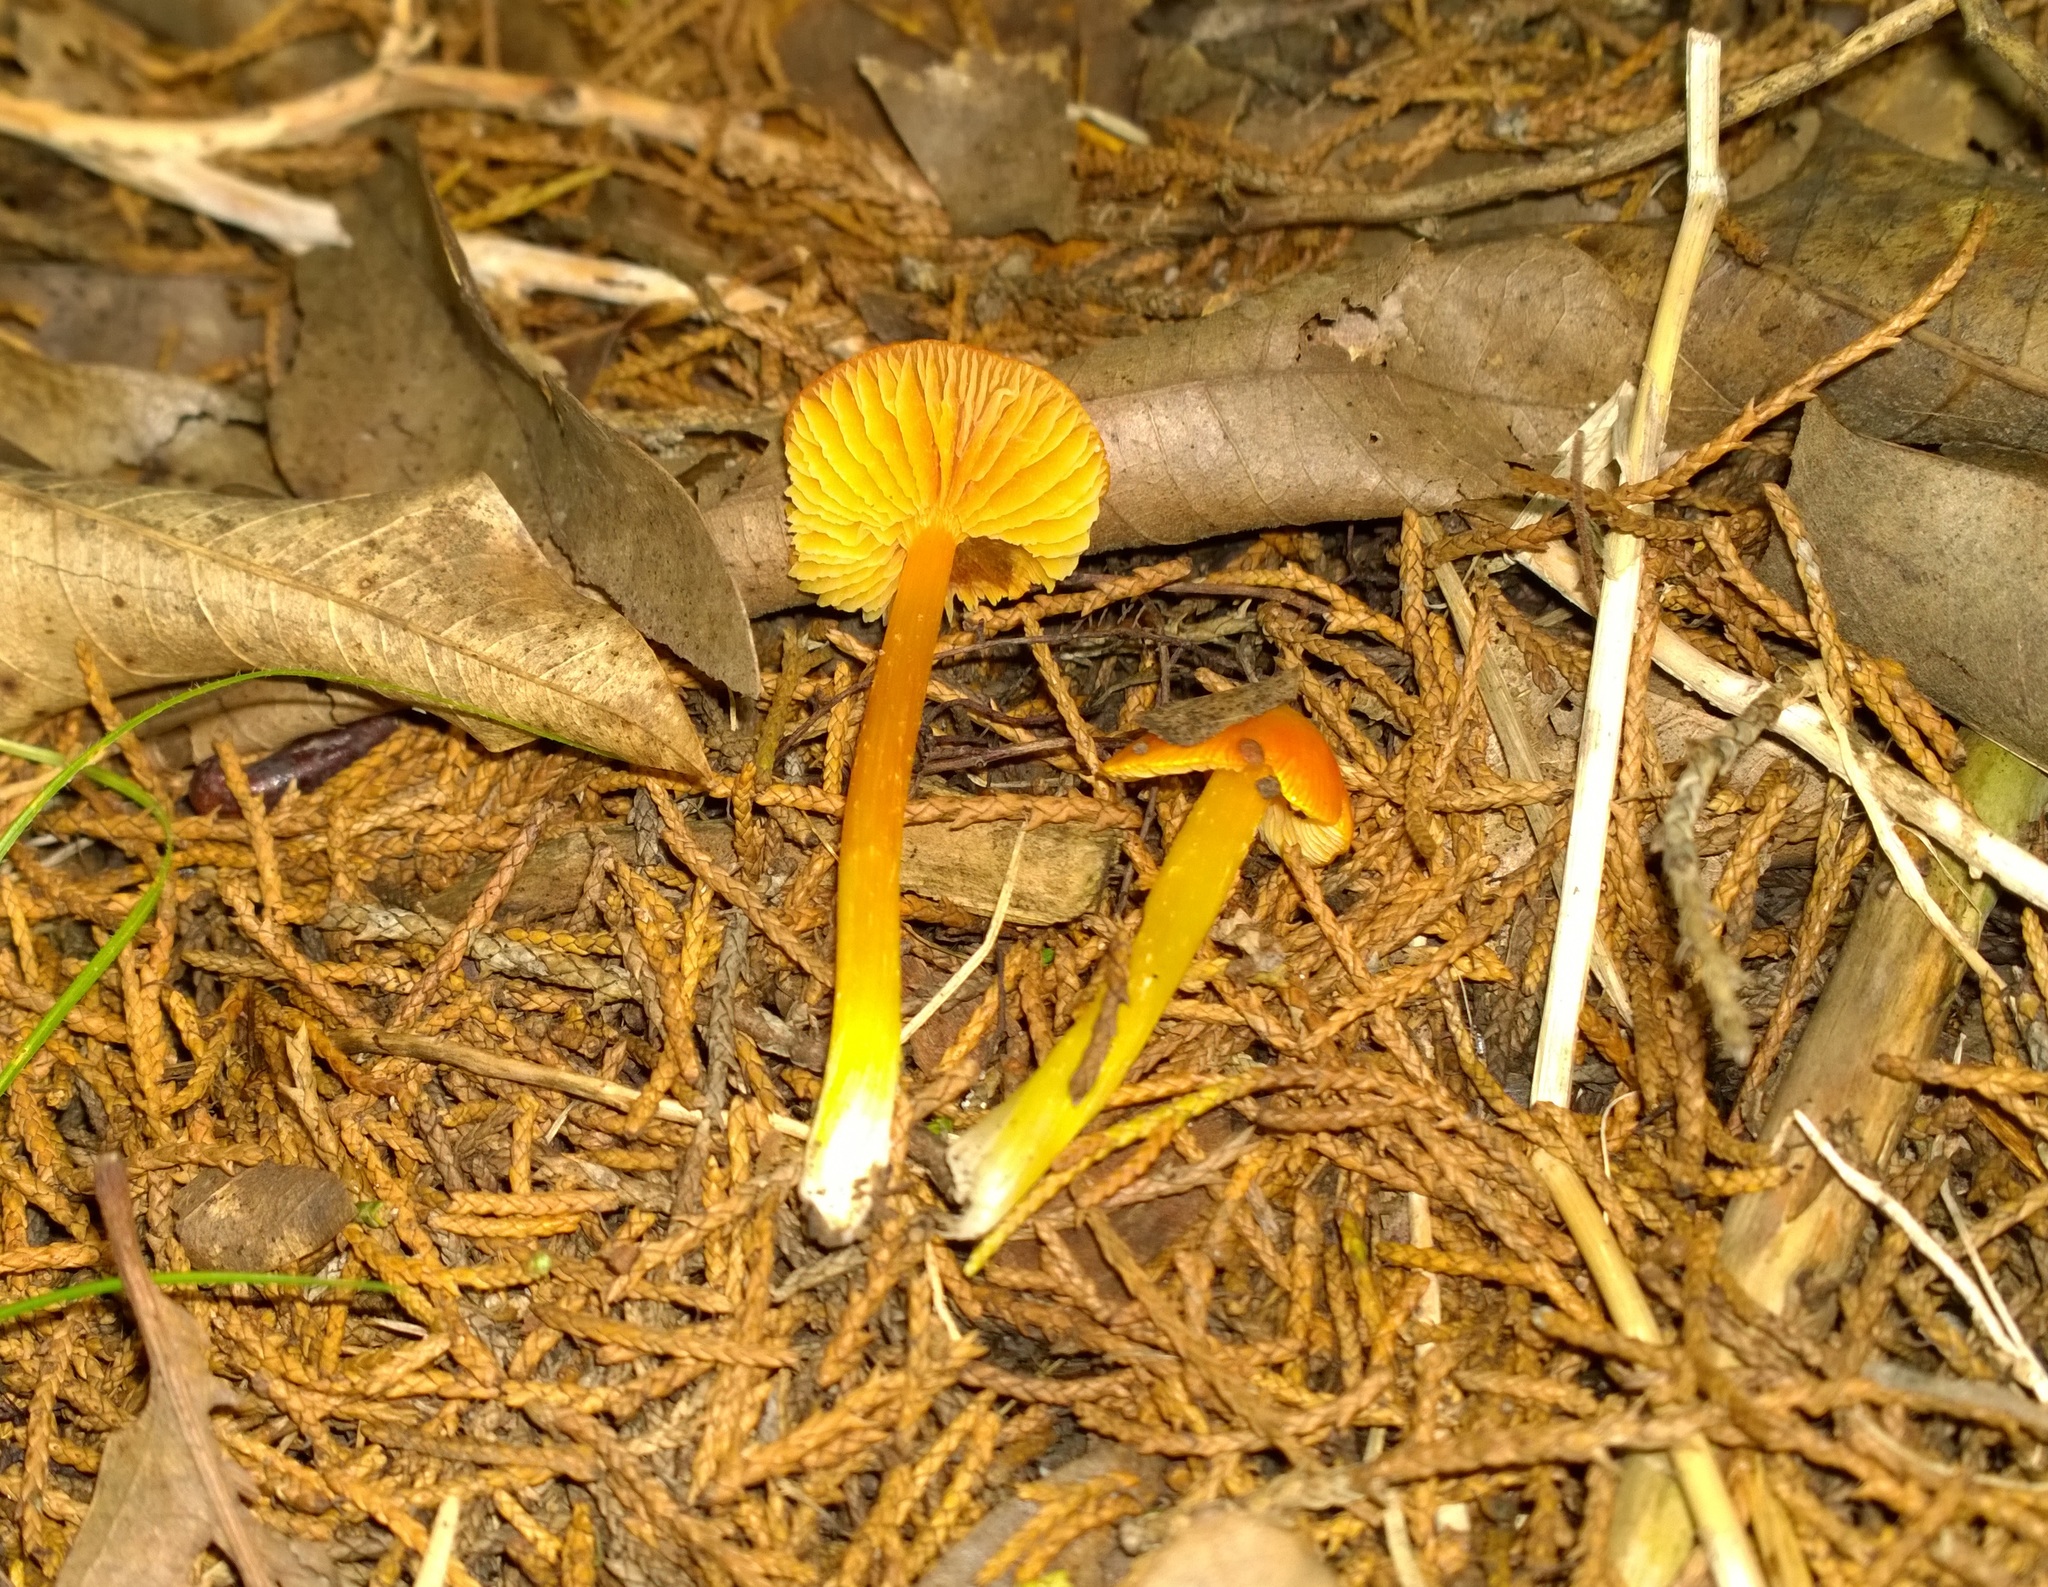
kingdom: Fungi
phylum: Basidiomycota
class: Agaricomycetes
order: Agaricales
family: Hygrophoraceae
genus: Hygrocybe
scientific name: Hygrocybe acutoconica
